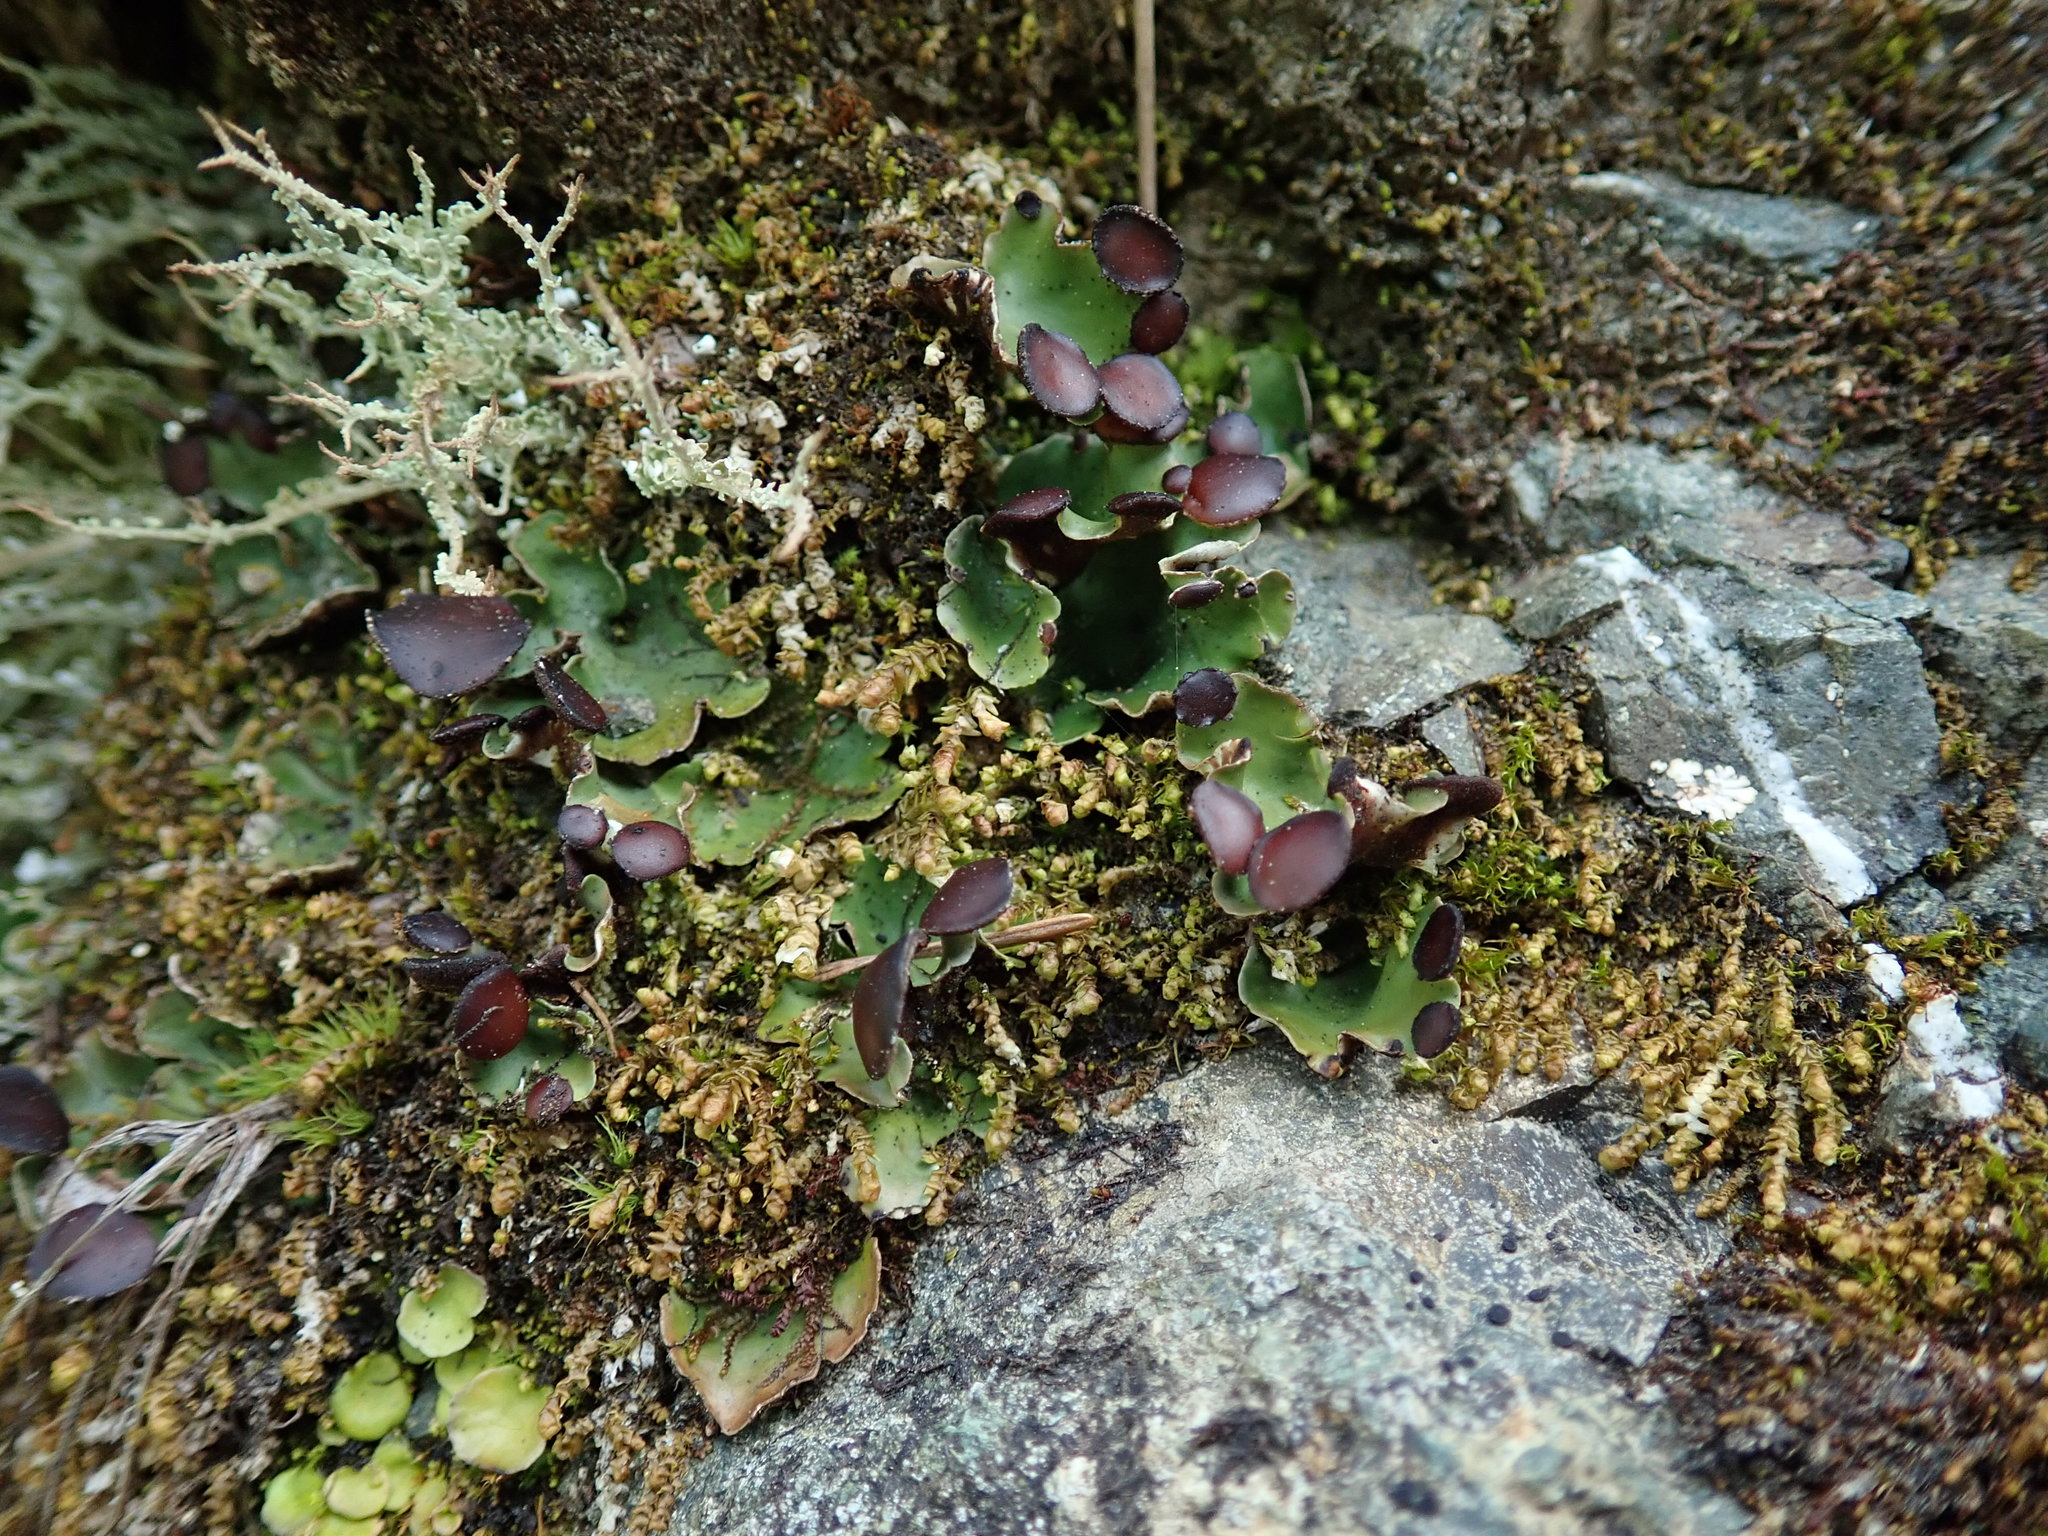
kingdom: Fungi
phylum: Ascomycota
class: Lecanoromycetes
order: Peltigerales
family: Peltigeraceae
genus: Peltigera
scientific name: Peltigera venosa
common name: Pixie gowns lichen
